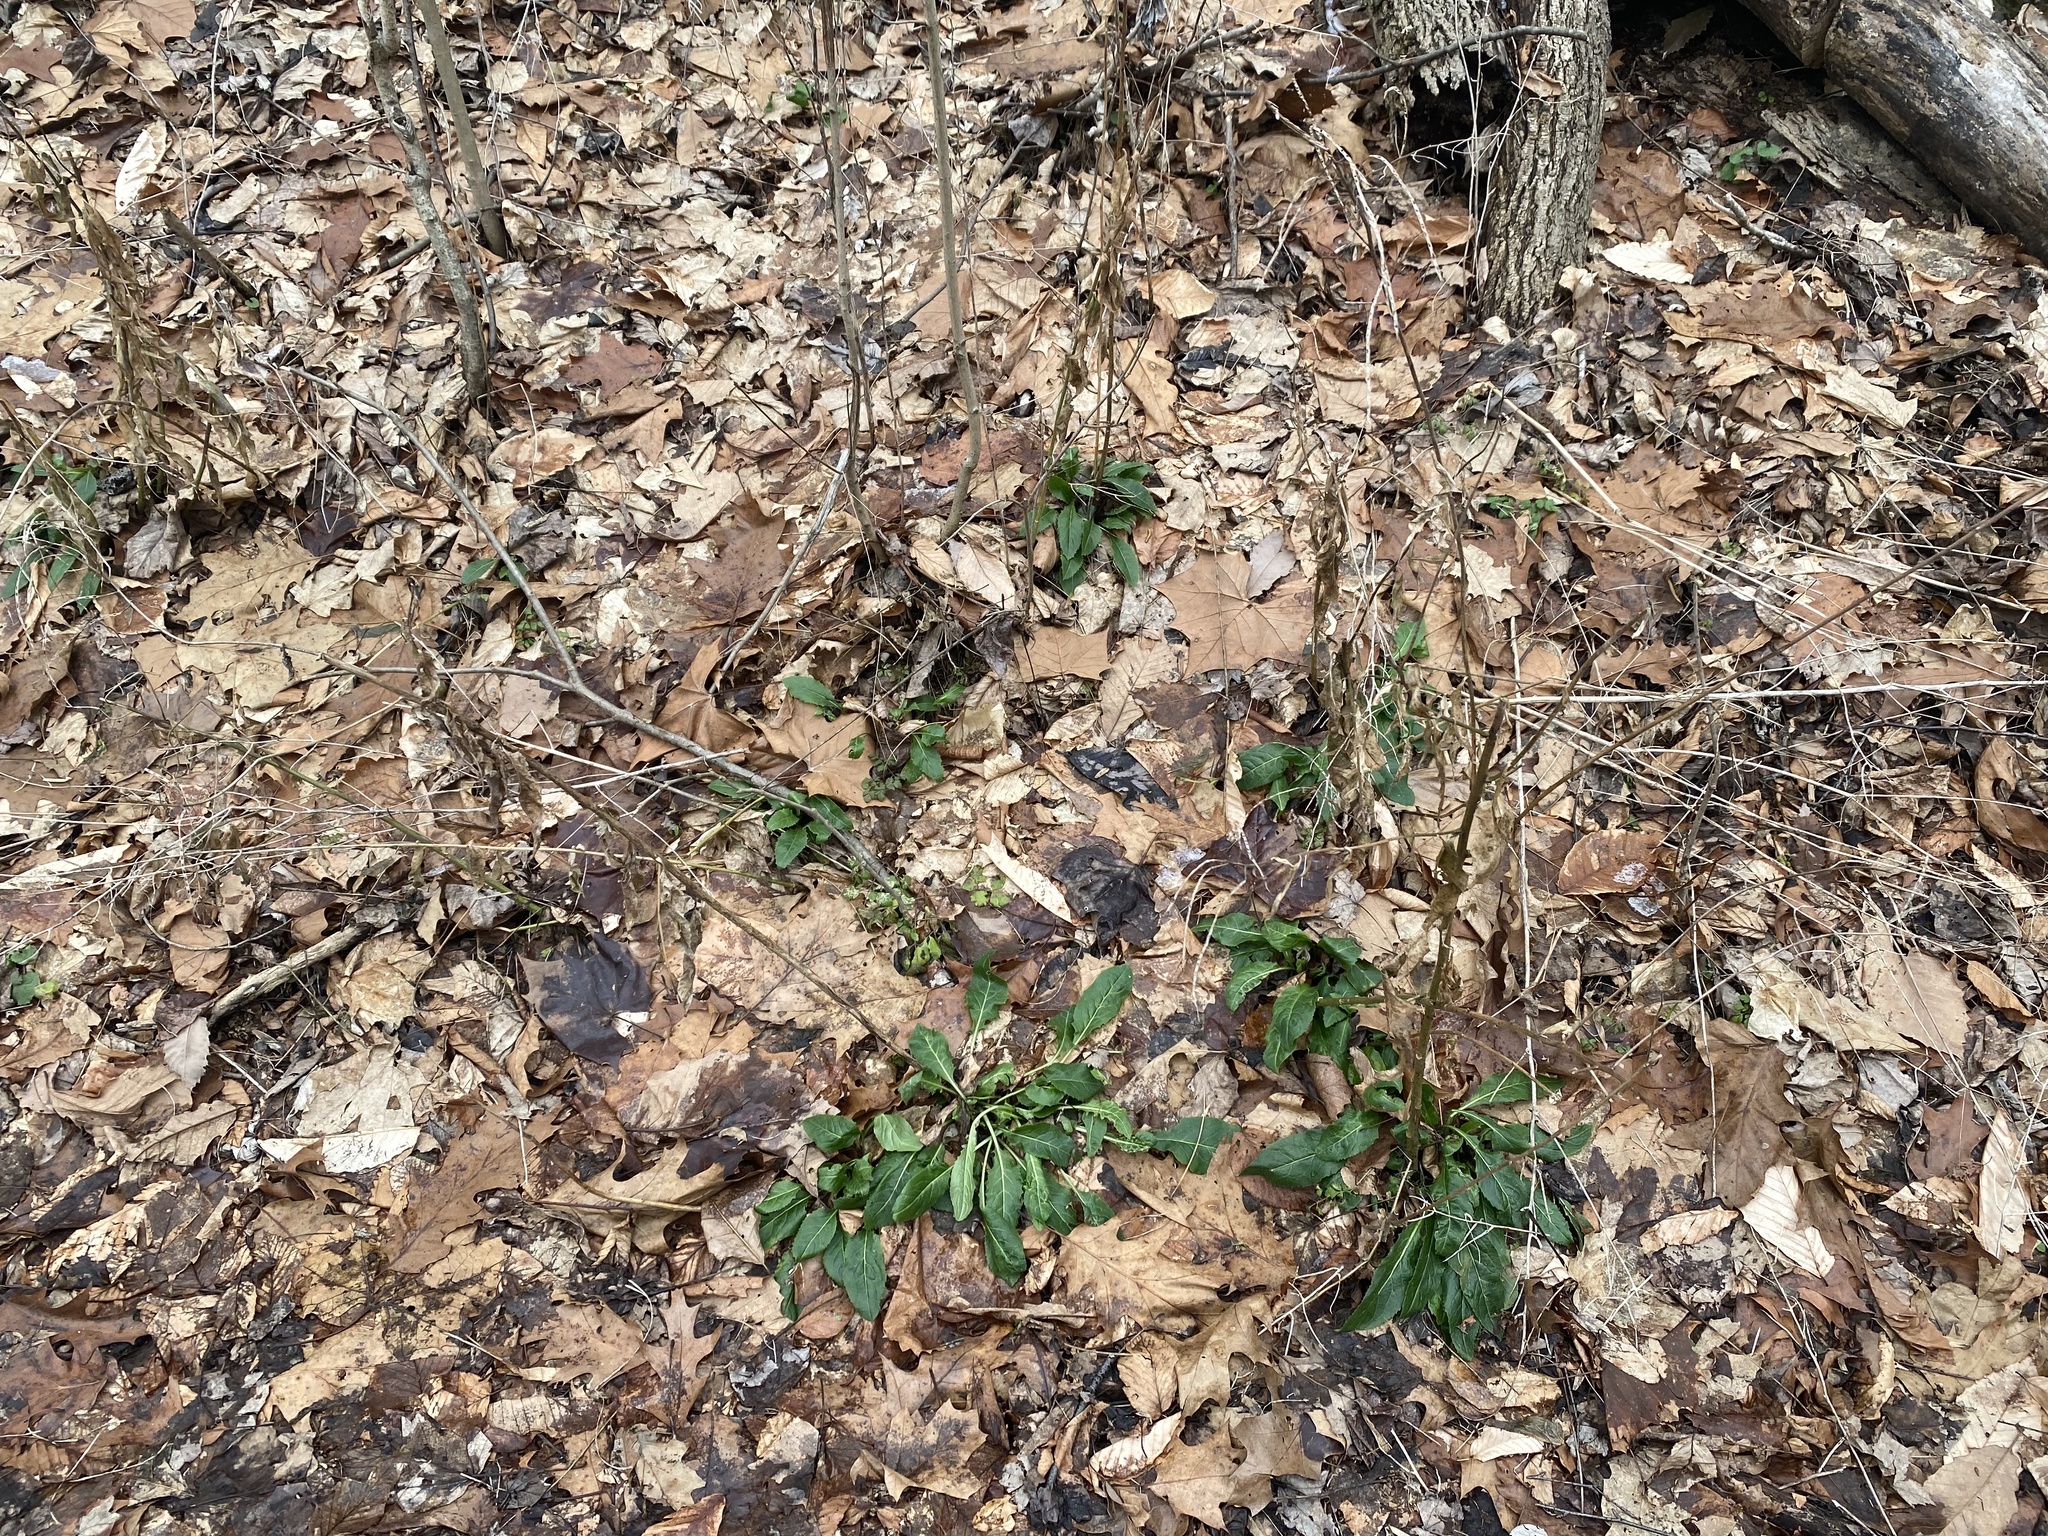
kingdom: Plantae
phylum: Tracheophyta
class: Magnoliopsida
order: Brassicales
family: Brassicaceae
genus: Hesperis
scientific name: Hesperis matronalis
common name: Dame's-violet
